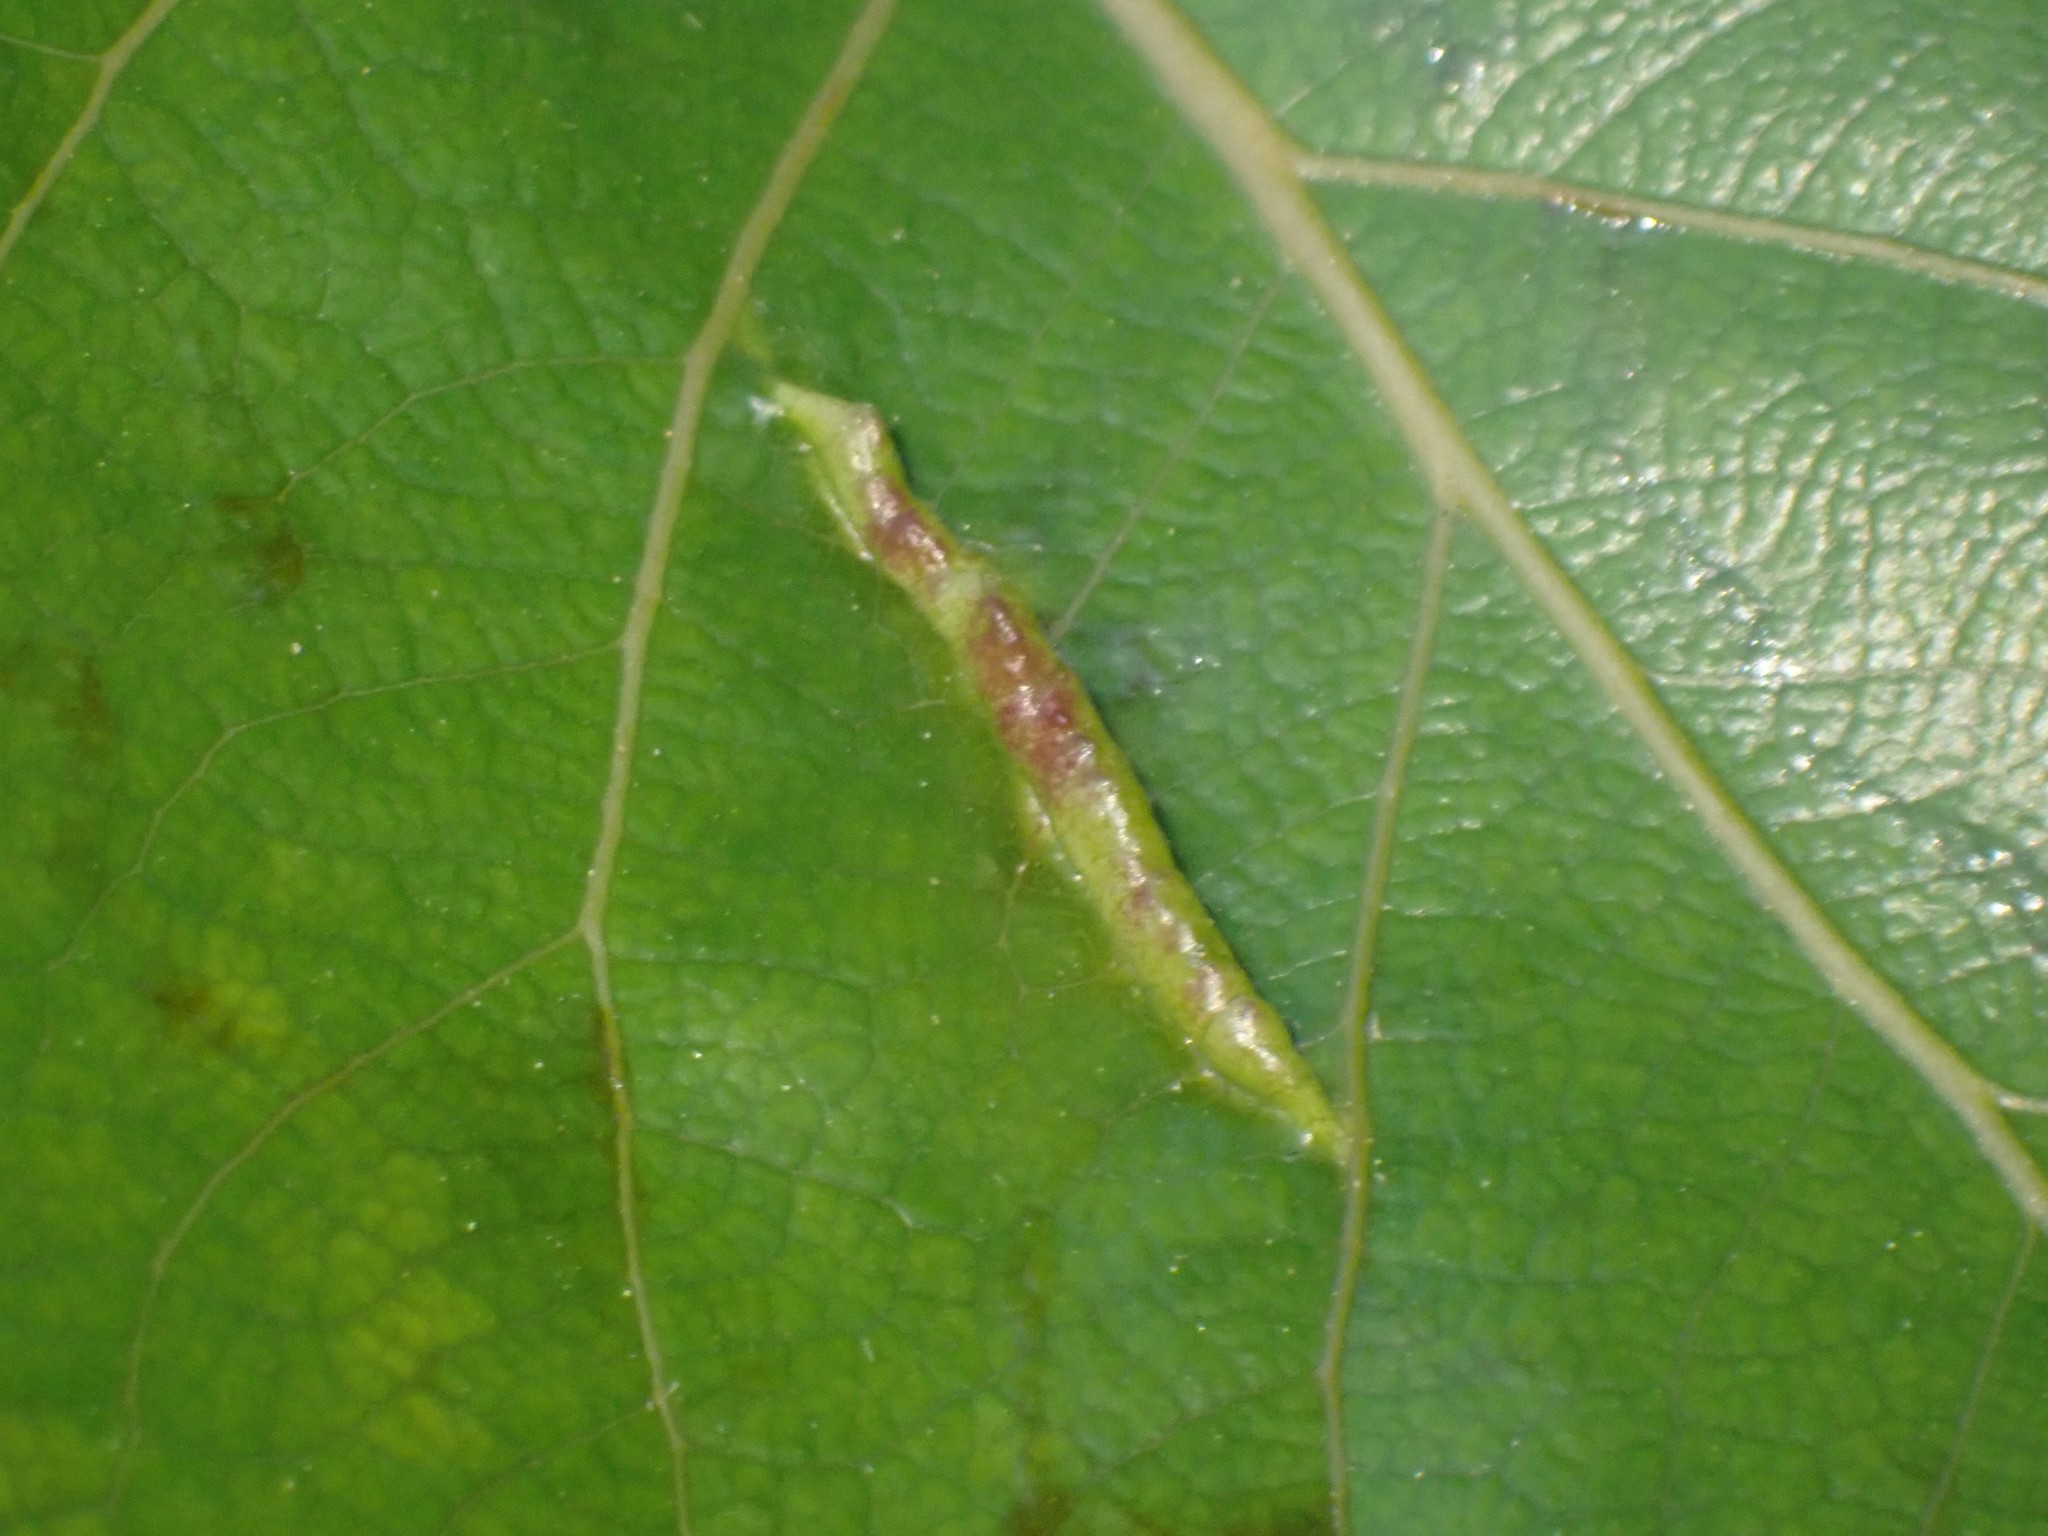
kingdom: Animalia
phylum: Arthropoda
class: Insecta
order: Hemiptera
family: Aphididae
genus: Thecabius
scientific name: Thecabius populimonilis
